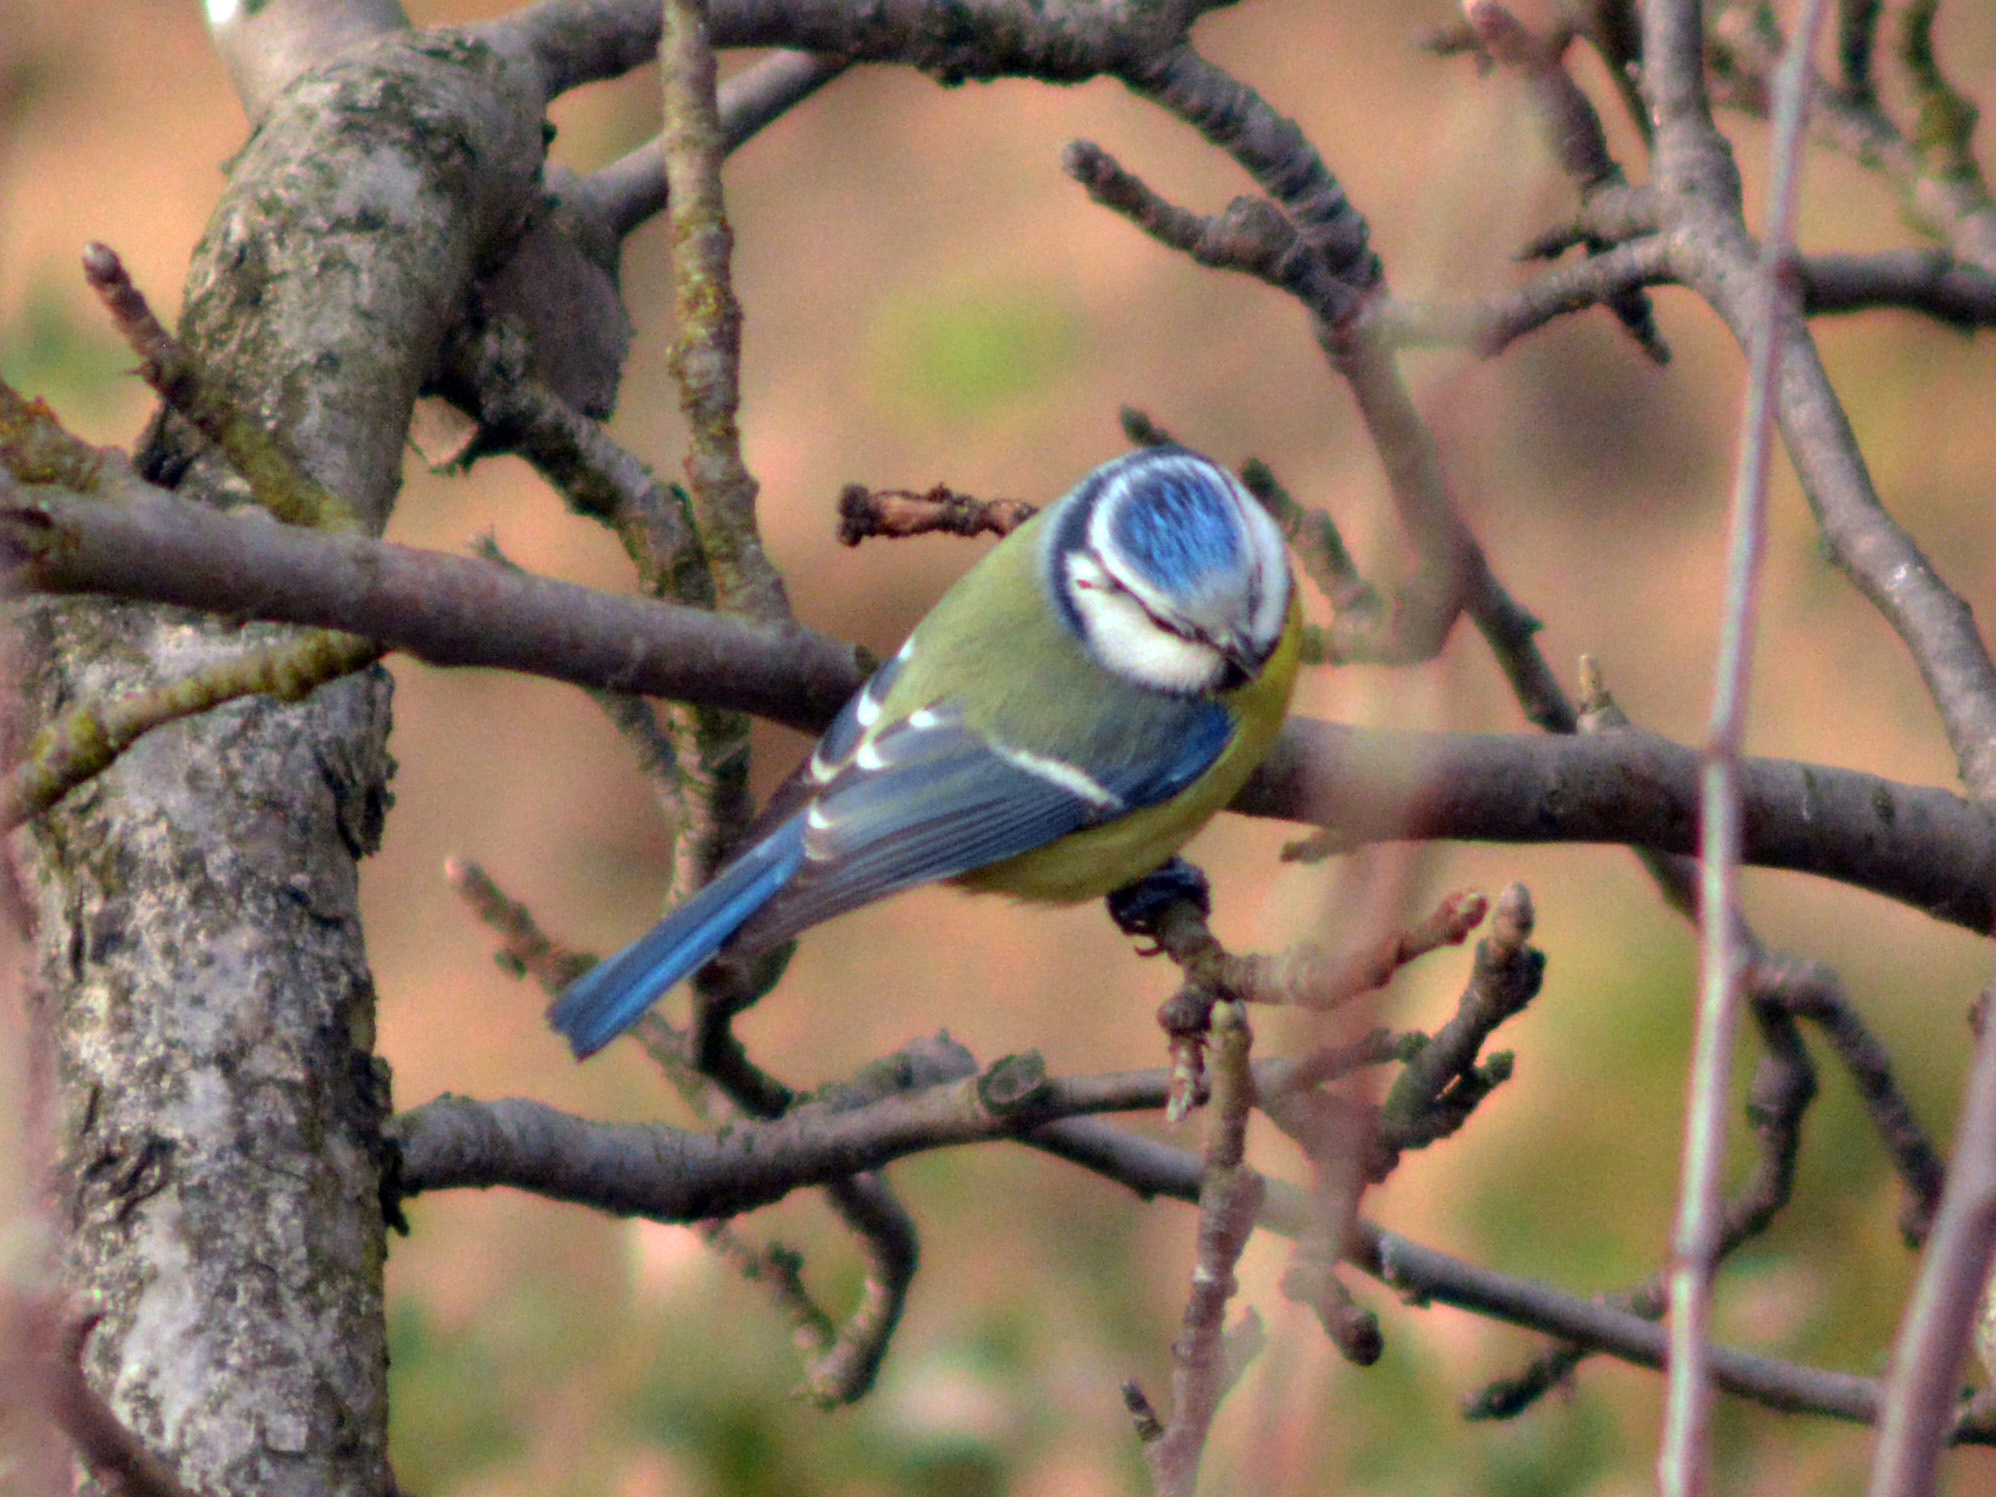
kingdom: Animalia
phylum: Chordata
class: Aves
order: Passeriformes
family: Paridae
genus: Cyanistes
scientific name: Cyanistes caeruleus
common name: Eurasian blue tit
